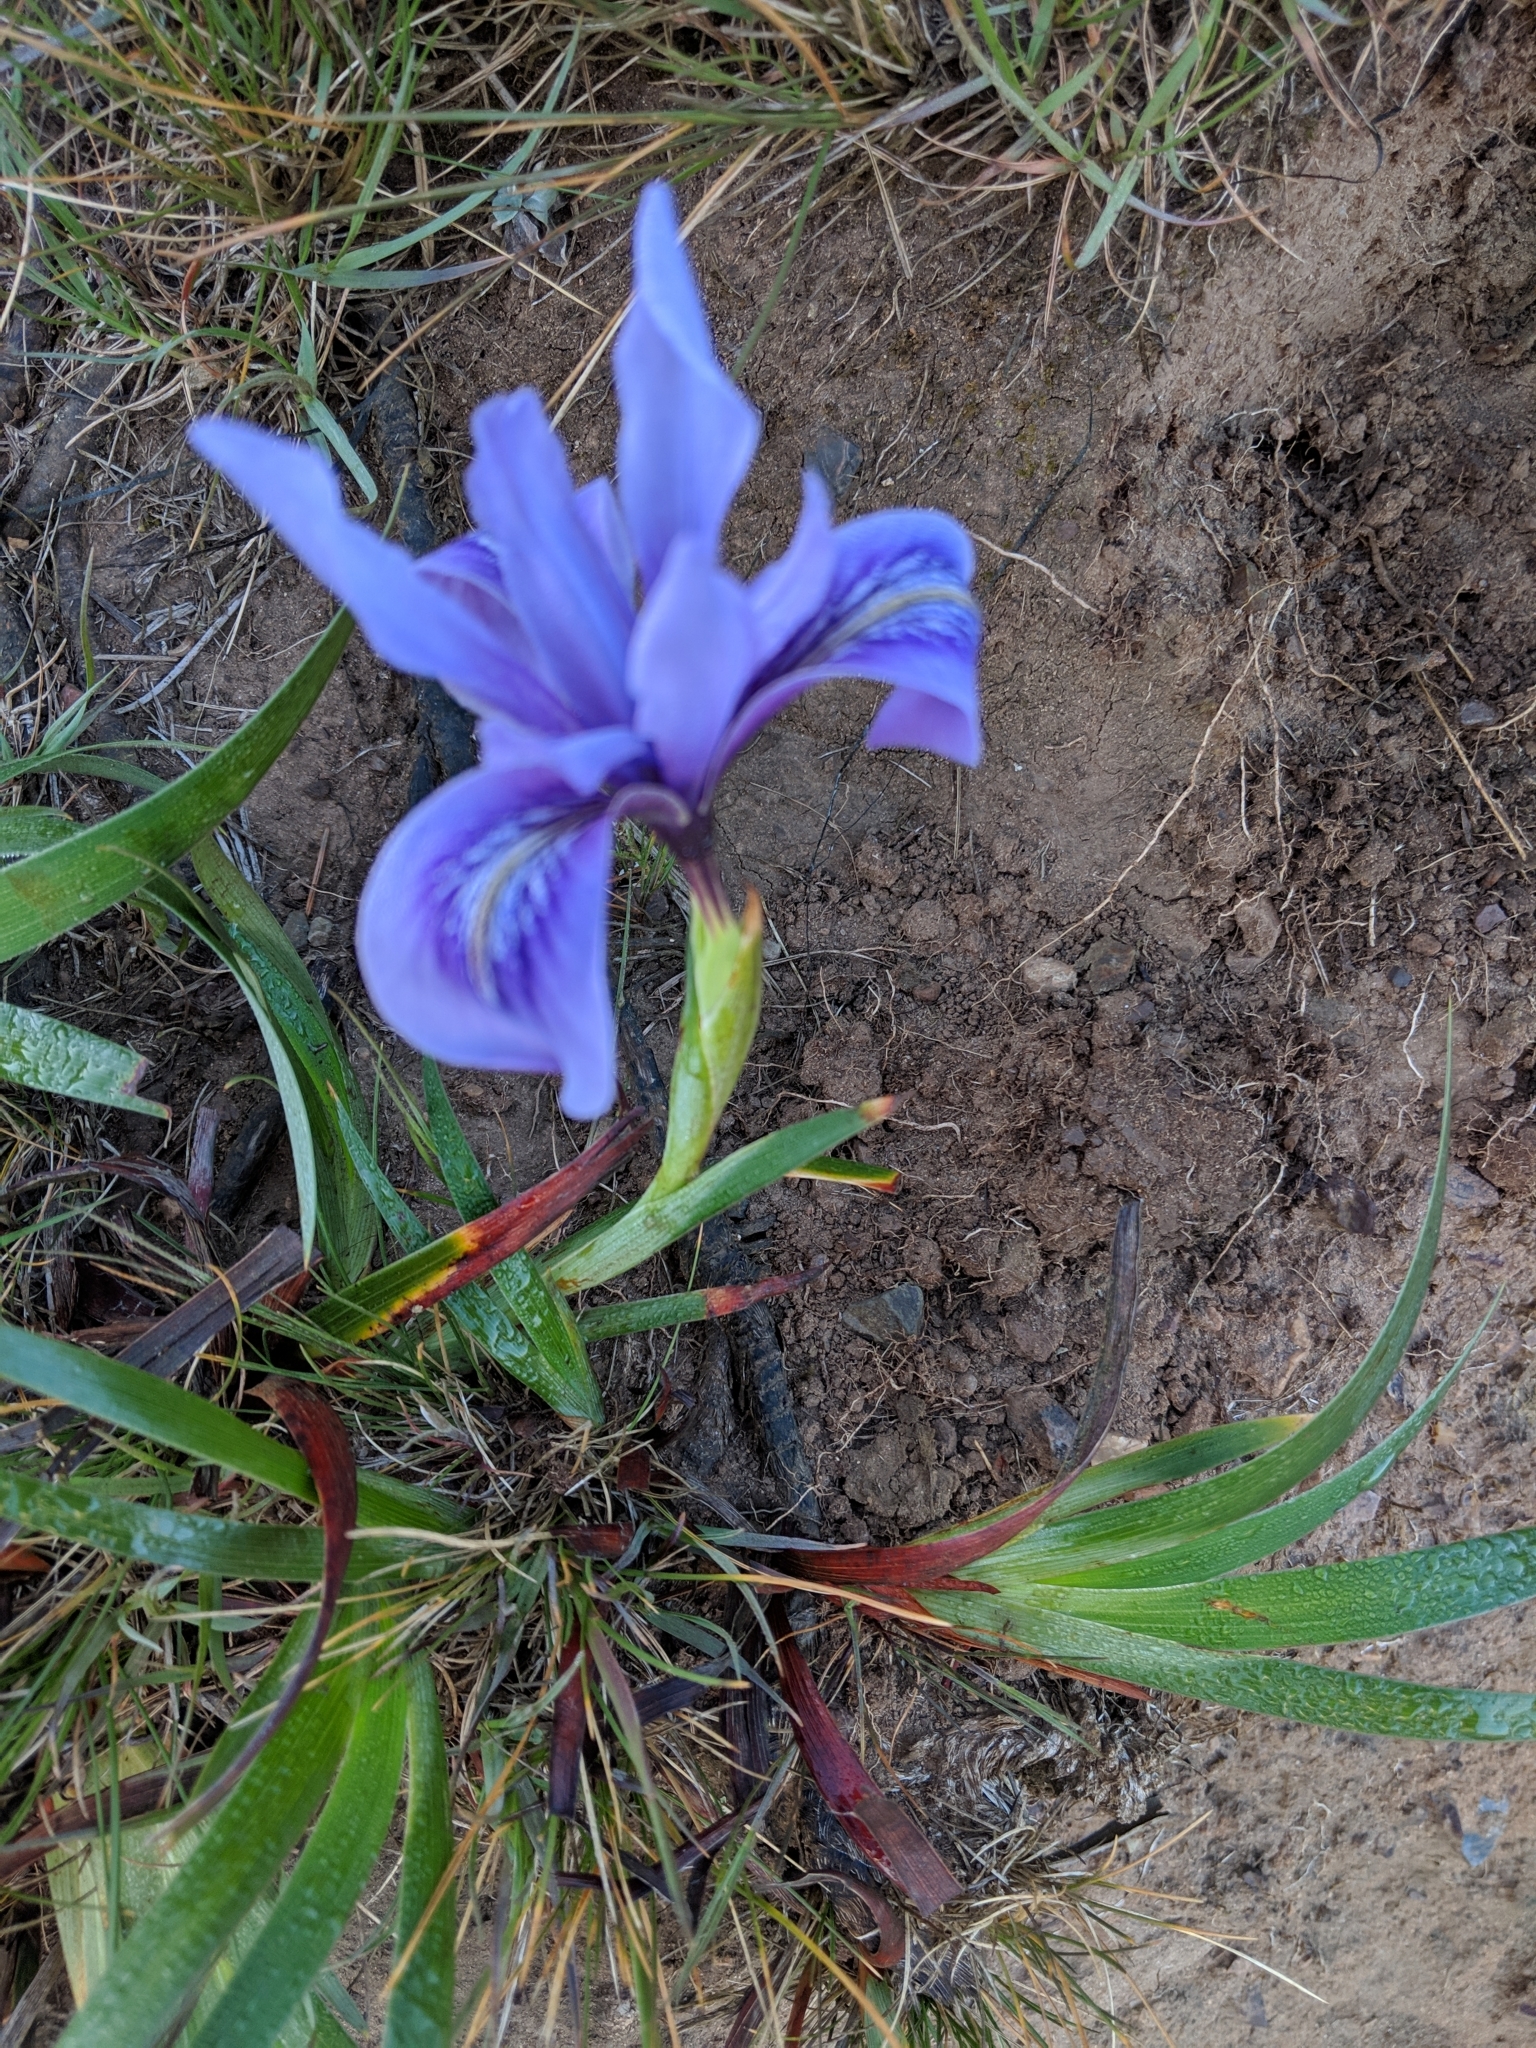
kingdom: Plantae
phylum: Tracheophyta
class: Liliopsida
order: Asparagales
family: Iridaceae
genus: Iris
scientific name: Iris douglasiana
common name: Marin iris
